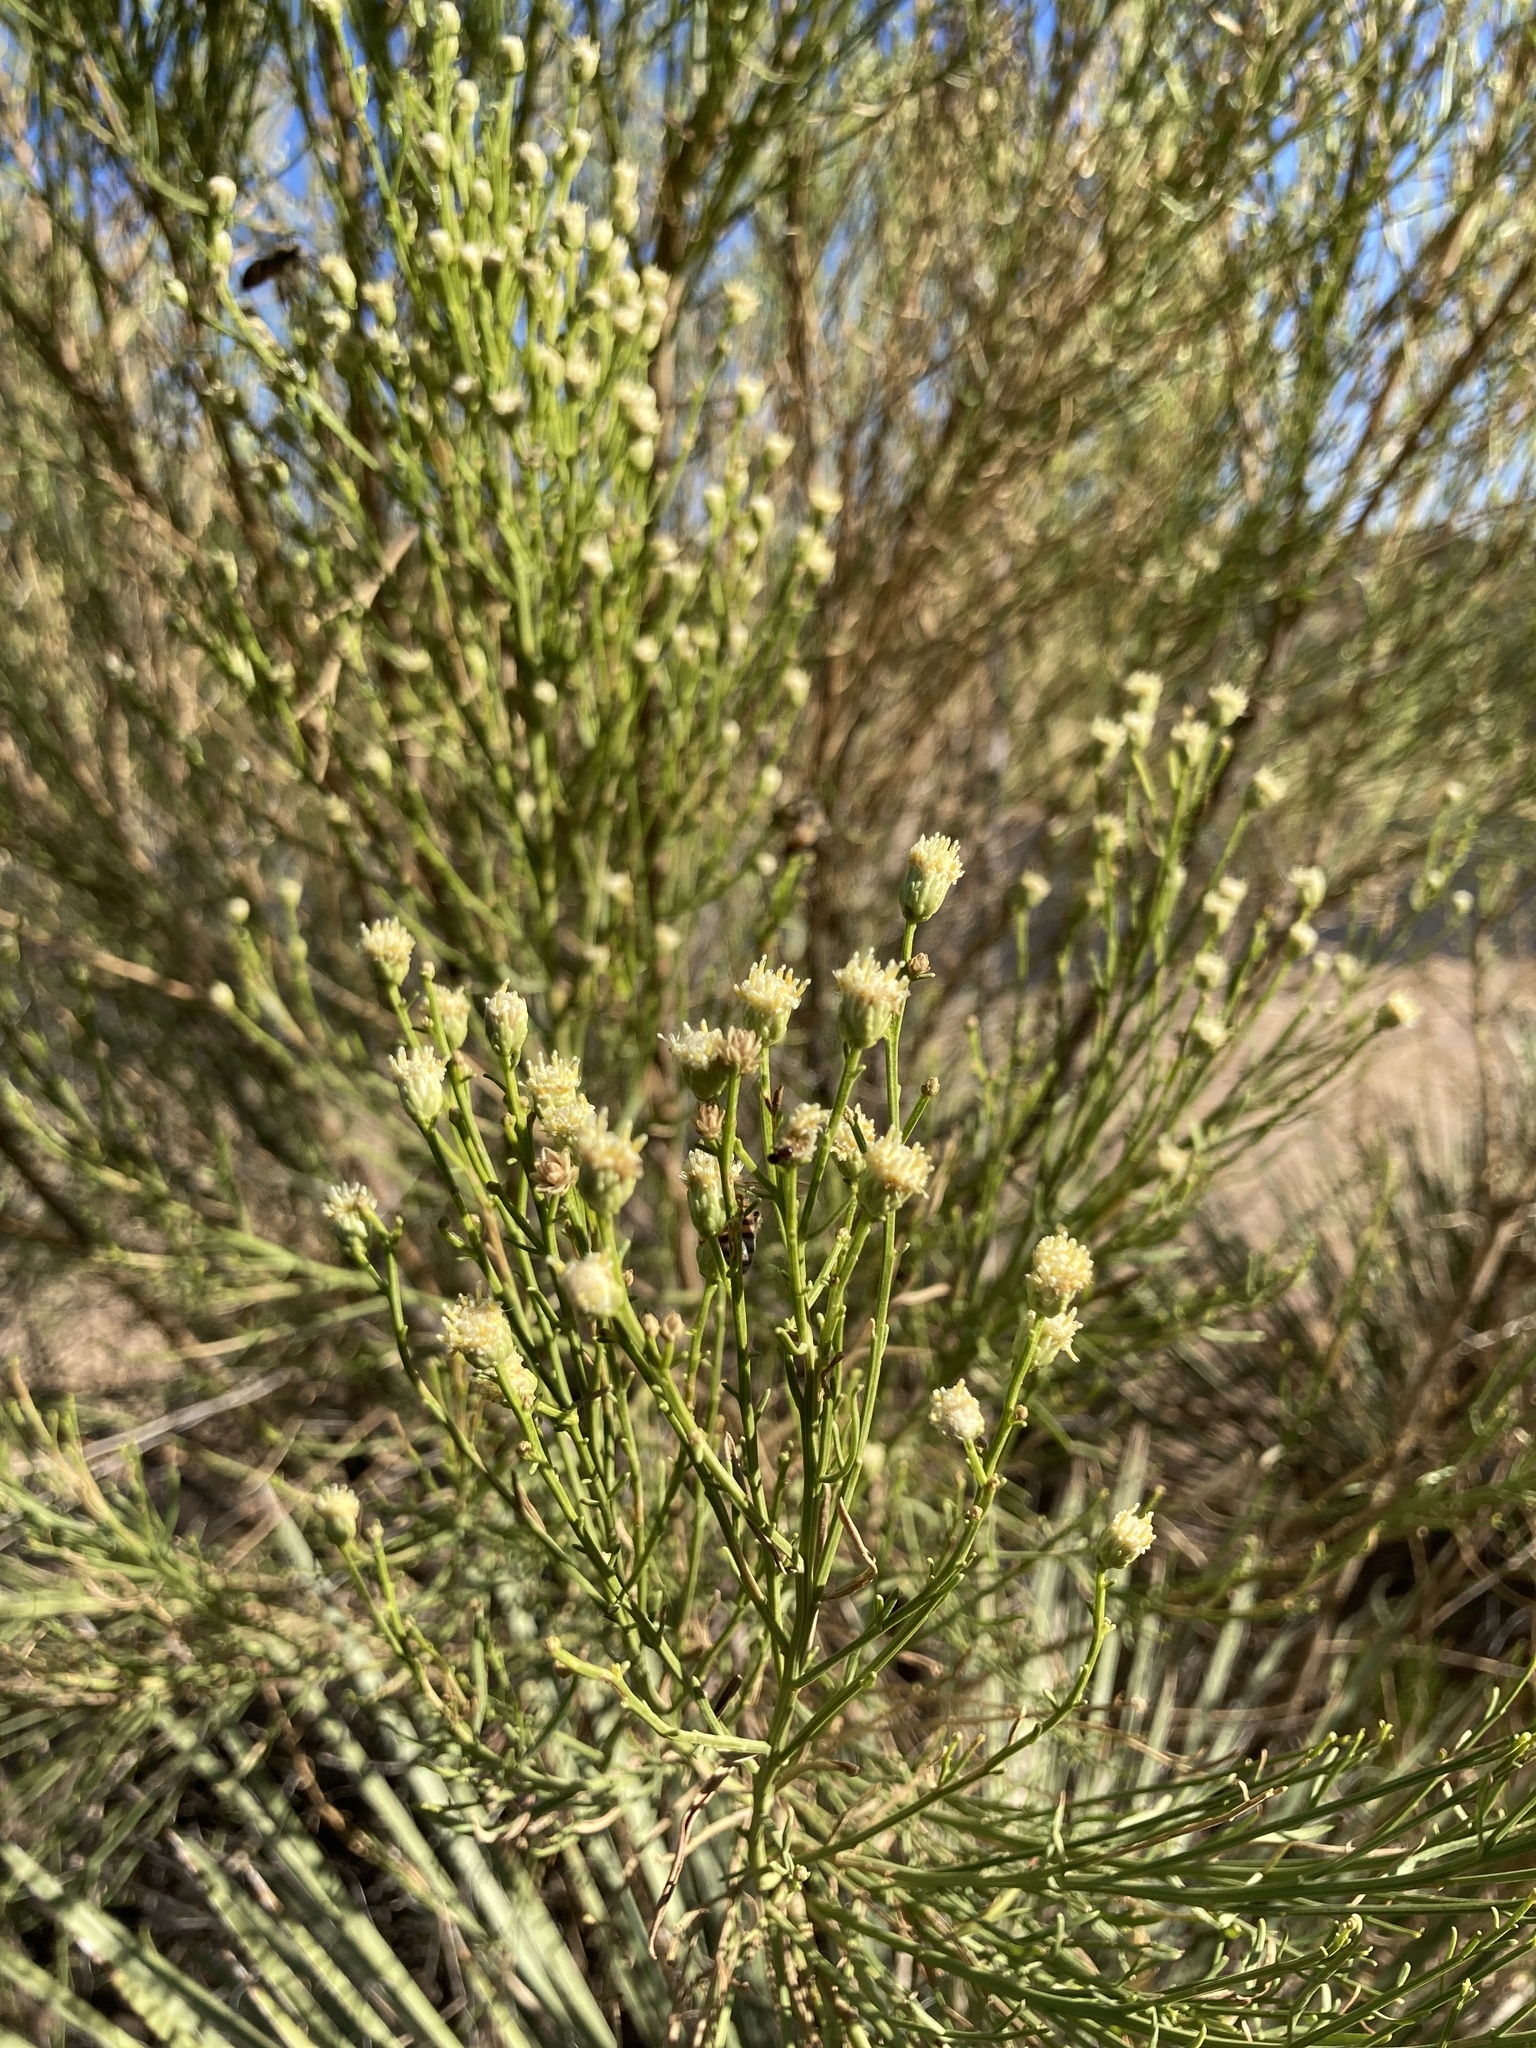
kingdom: Plantae
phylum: Tracheophyta
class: Magnoliopsida
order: Asterales
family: Asteraceae
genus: Baccharis
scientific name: Baccharis sarothroides
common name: Desert-broom
